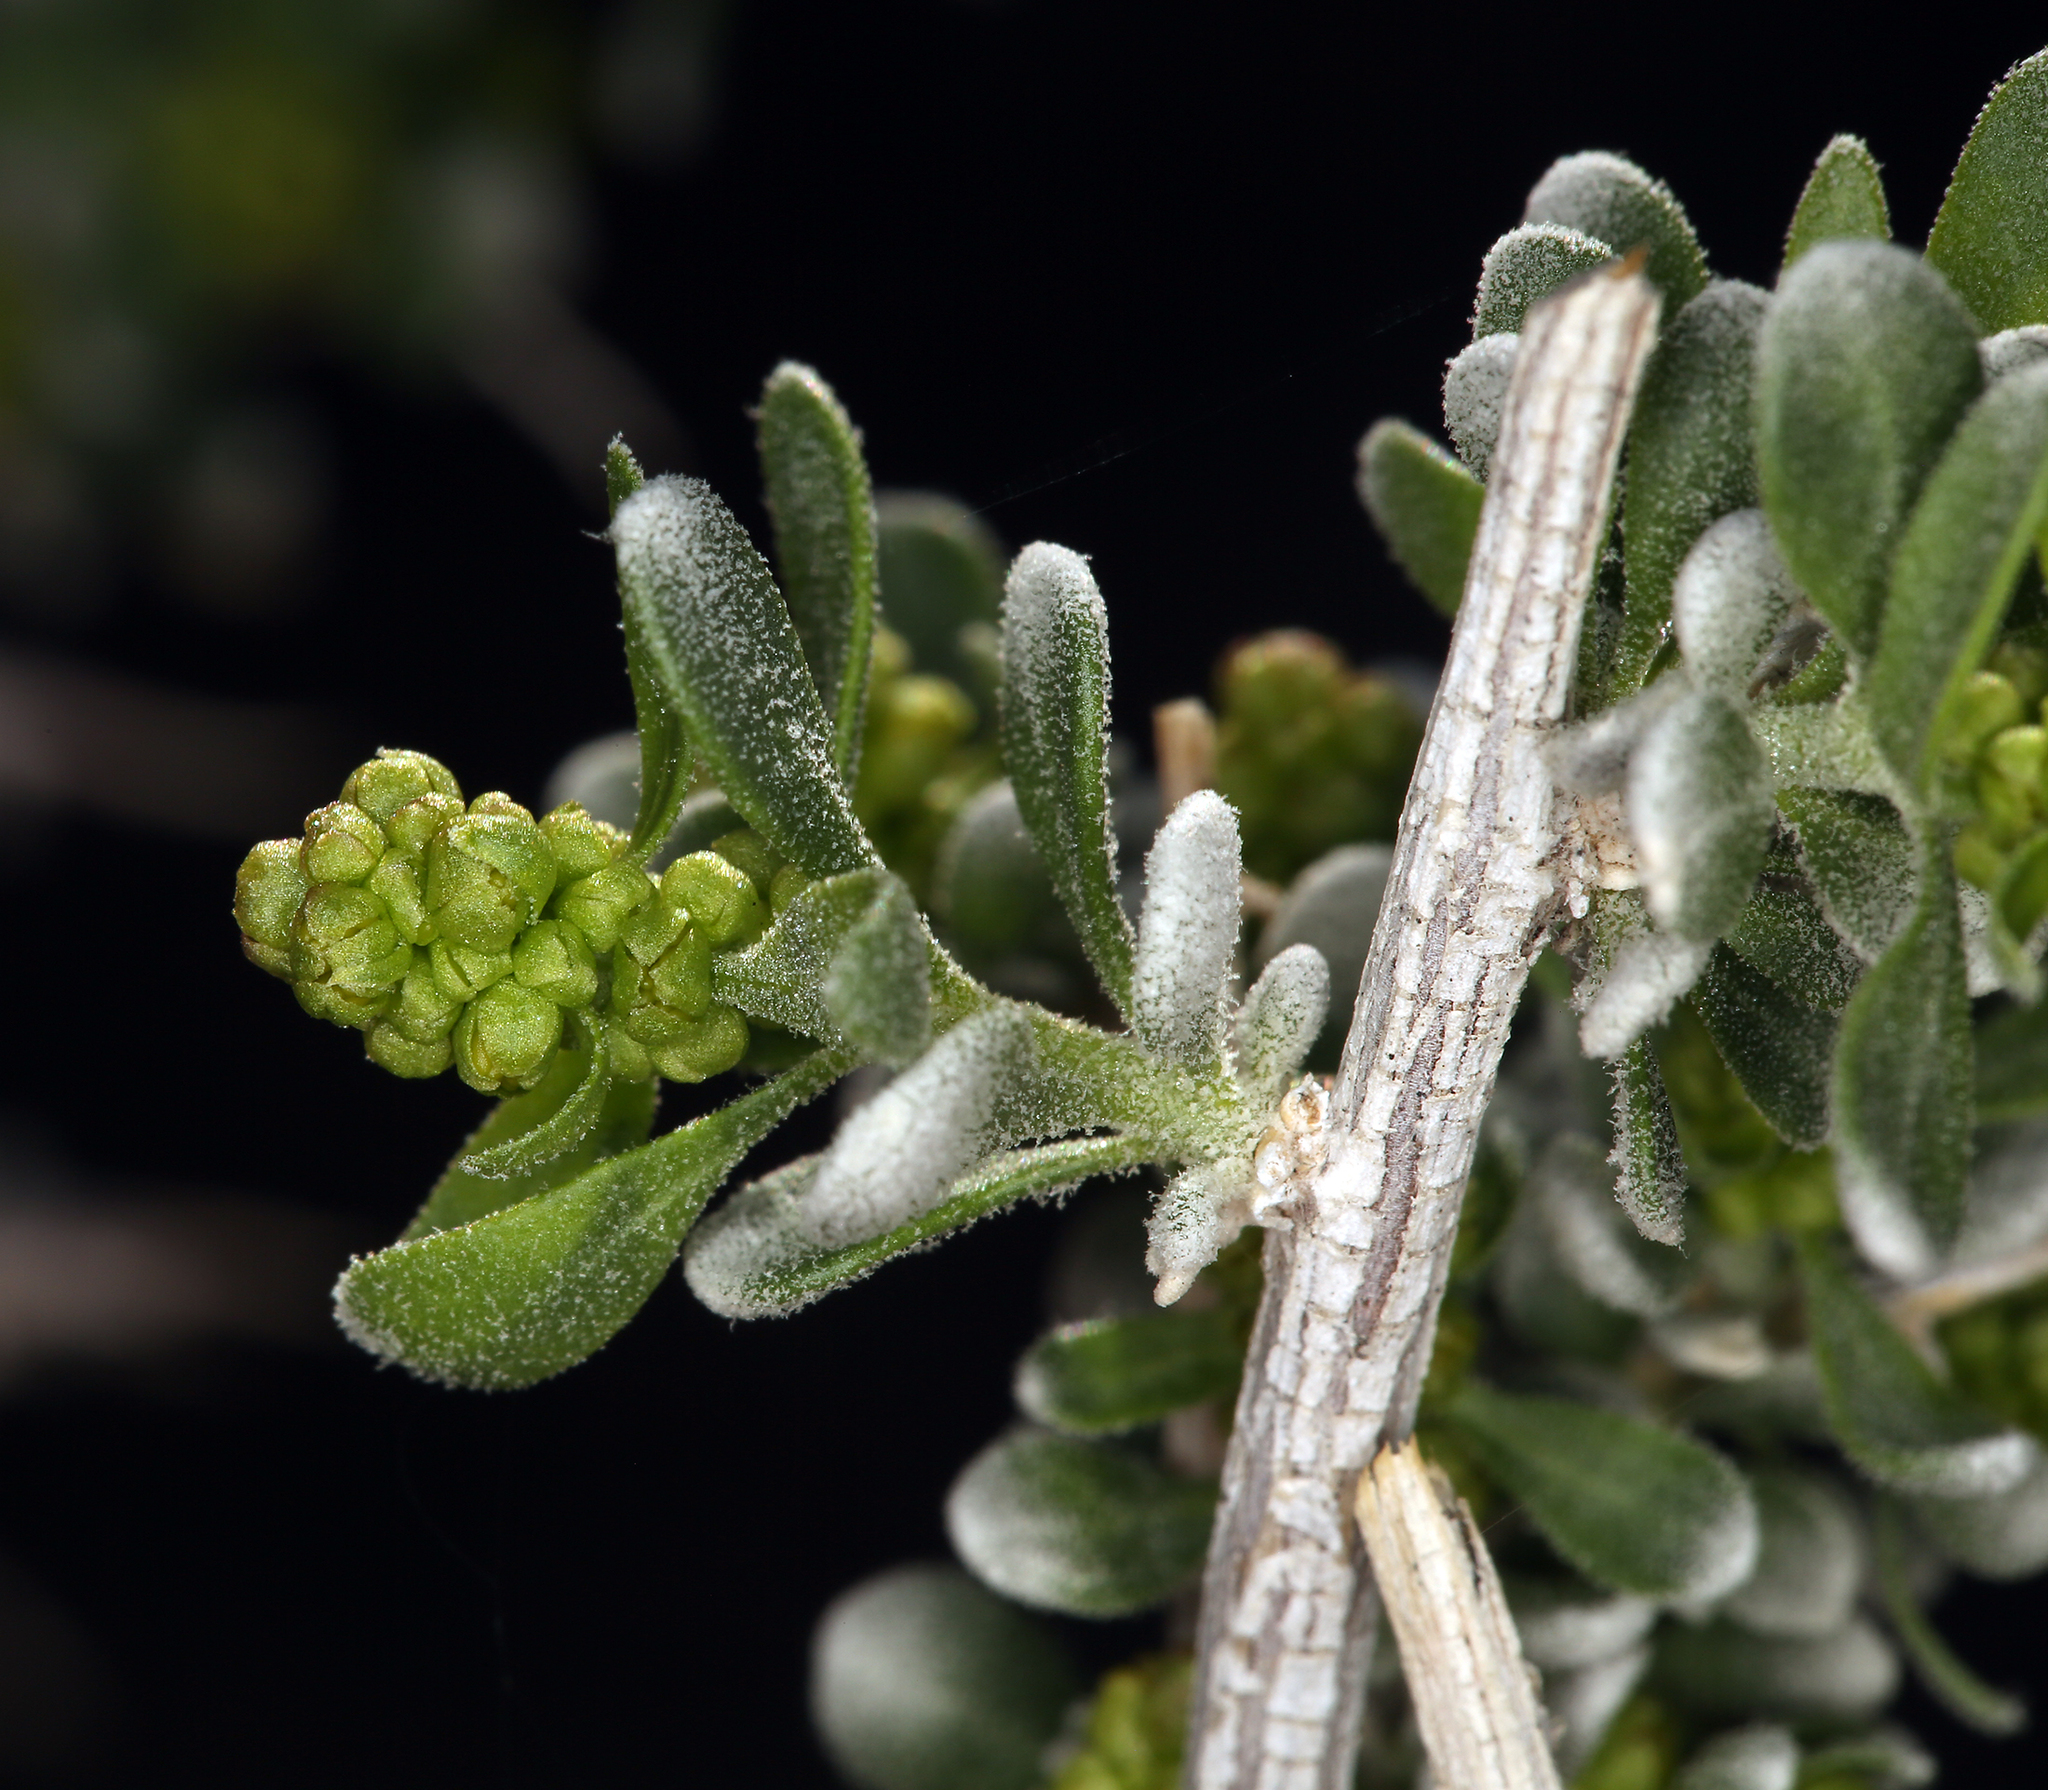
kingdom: Plantae
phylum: Tracheophyta
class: Magnoliopsida
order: Caryophyllales
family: Amaranthaceae
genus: Grayia
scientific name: Grayia spinosa
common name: Spiny hopsage
